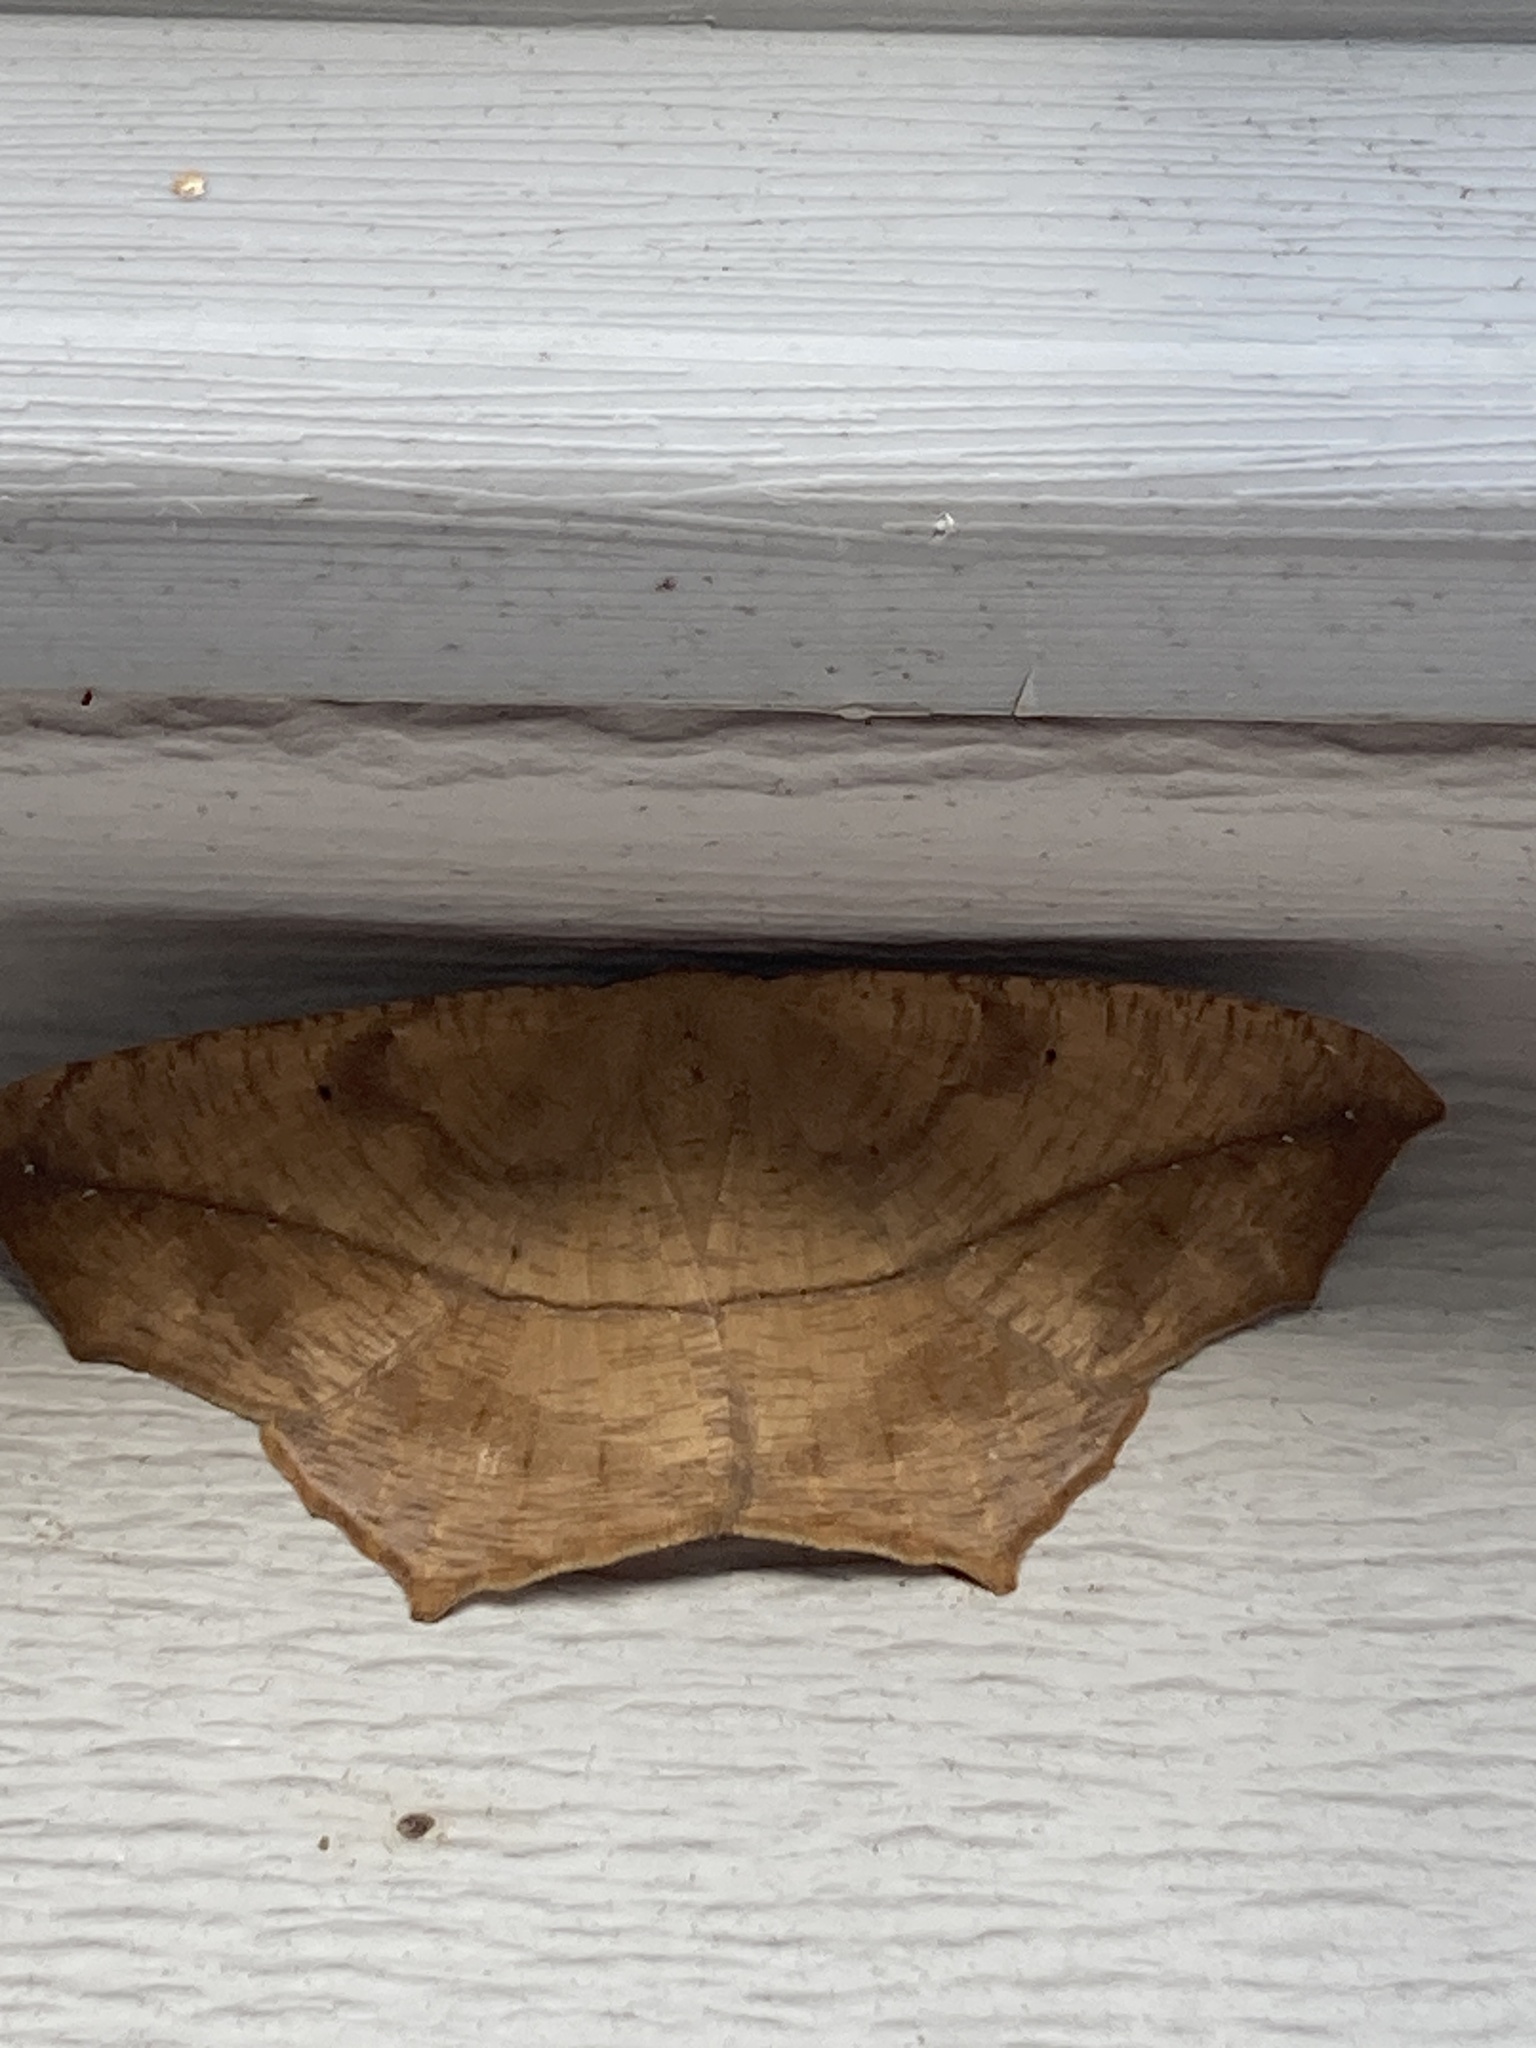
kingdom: Animalia
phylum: Arthropoda
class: Insecta
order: Lepidoptera
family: Geometridae
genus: Prochoerodes
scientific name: Prochoerodes lineola
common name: Large maple spanworm
